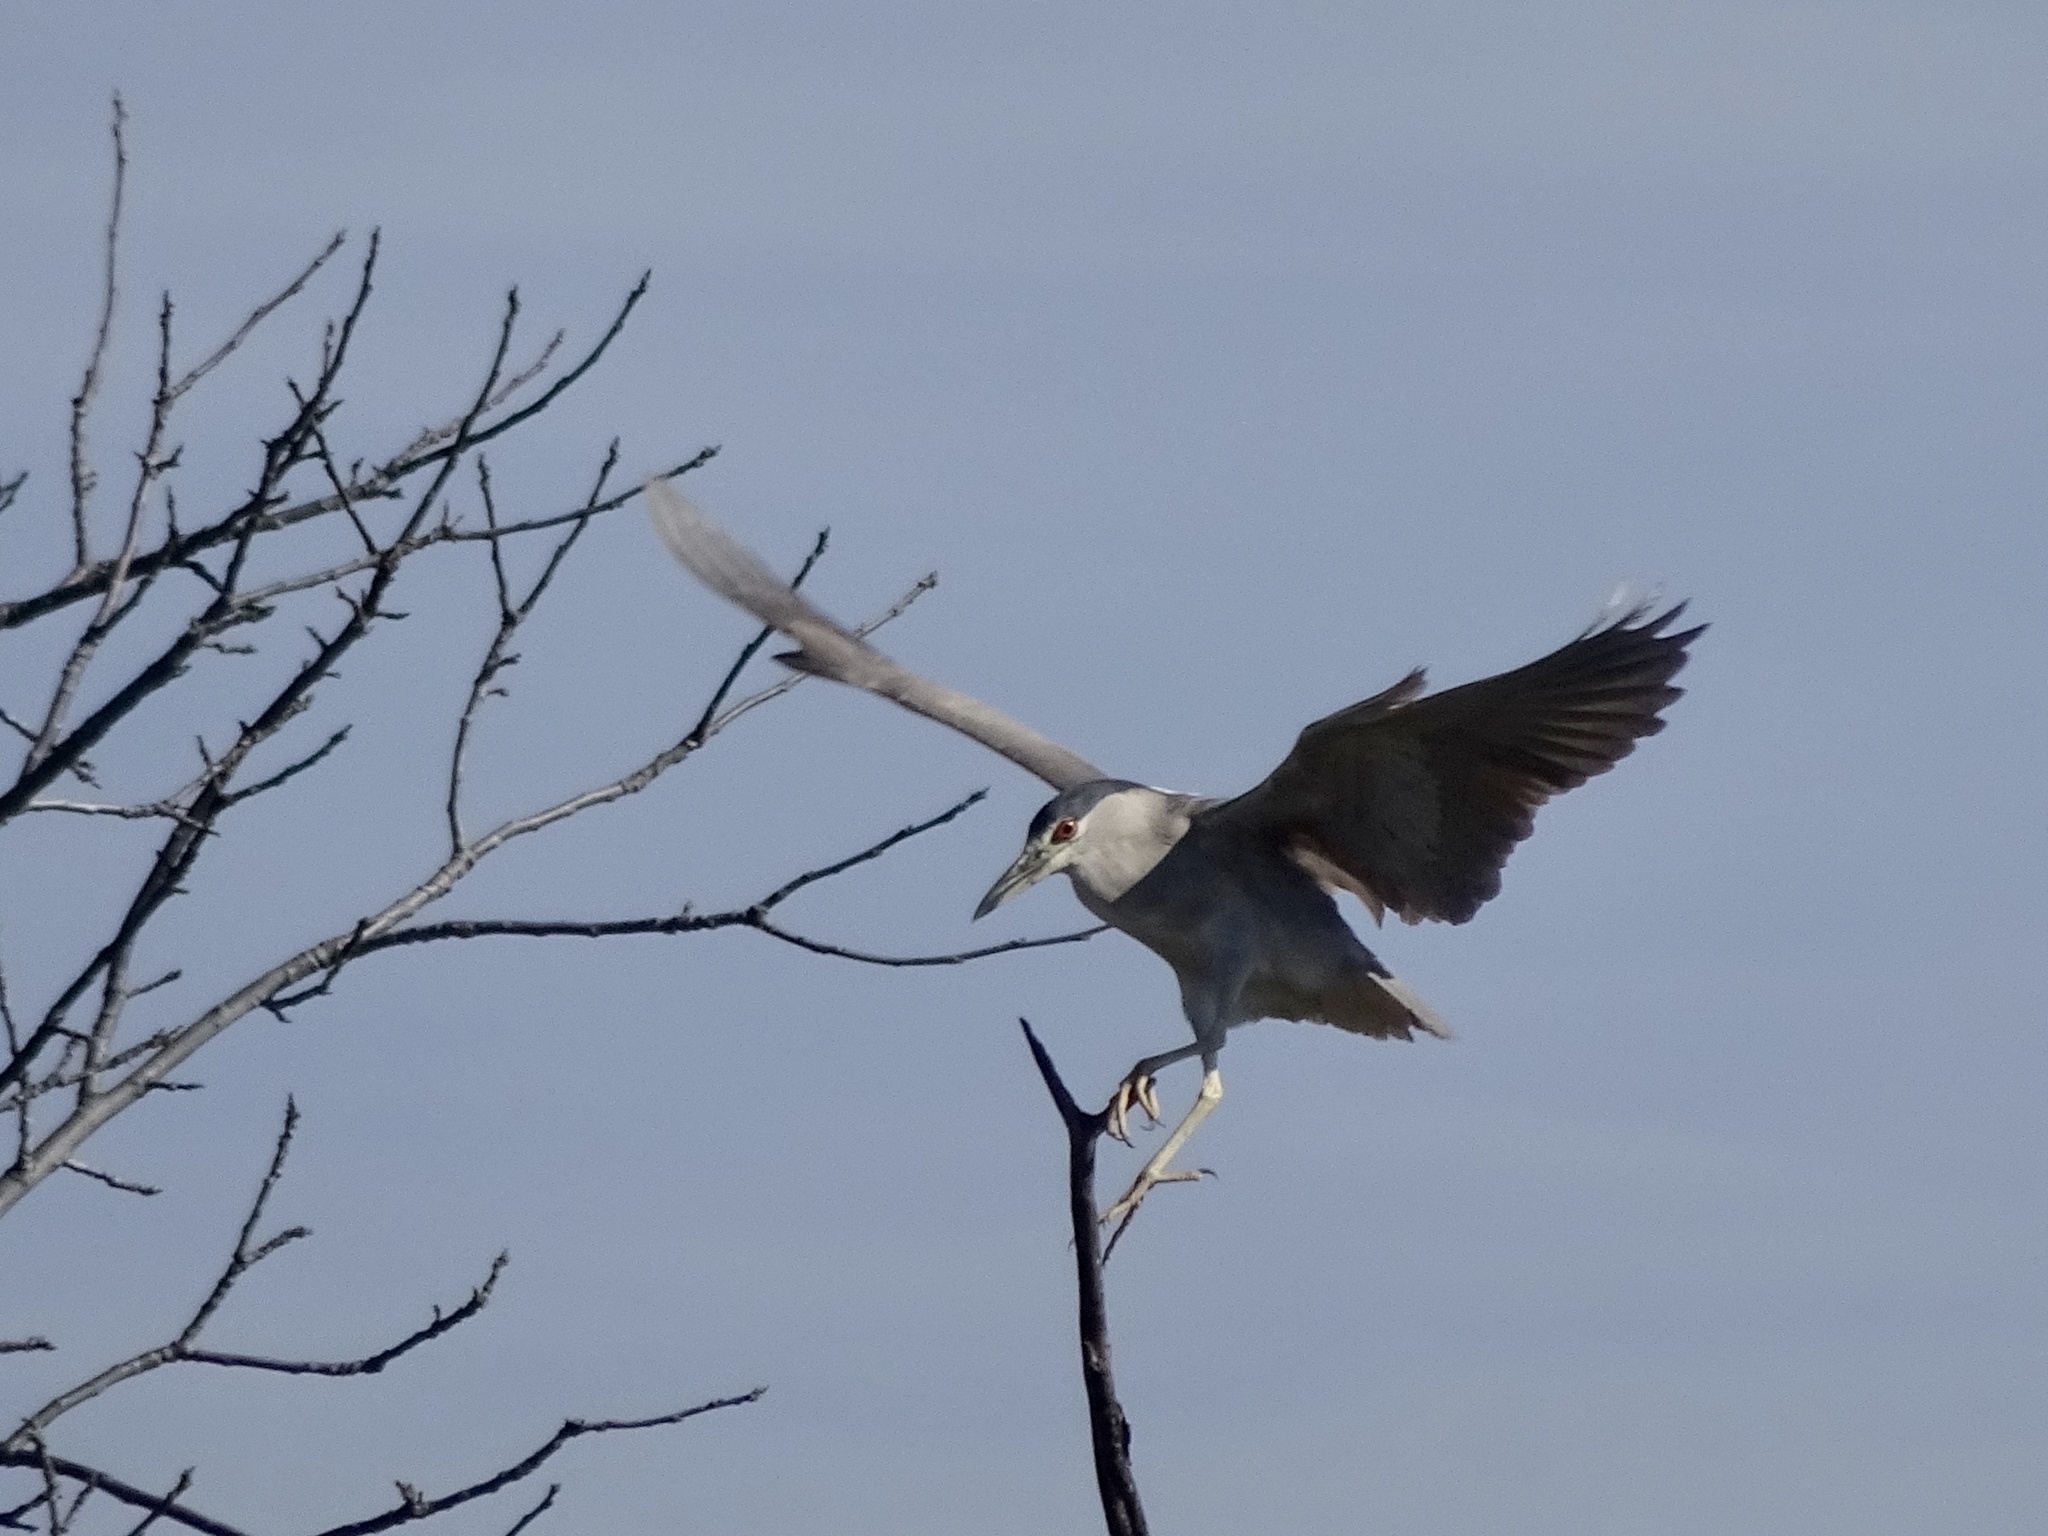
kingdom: Animalia
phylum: Chordata
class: Aves
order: Pelecaniformes
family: Ardeidae
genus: Nycticorax
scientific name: Nycticorax nycticorax
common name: Black-crowned night heron
